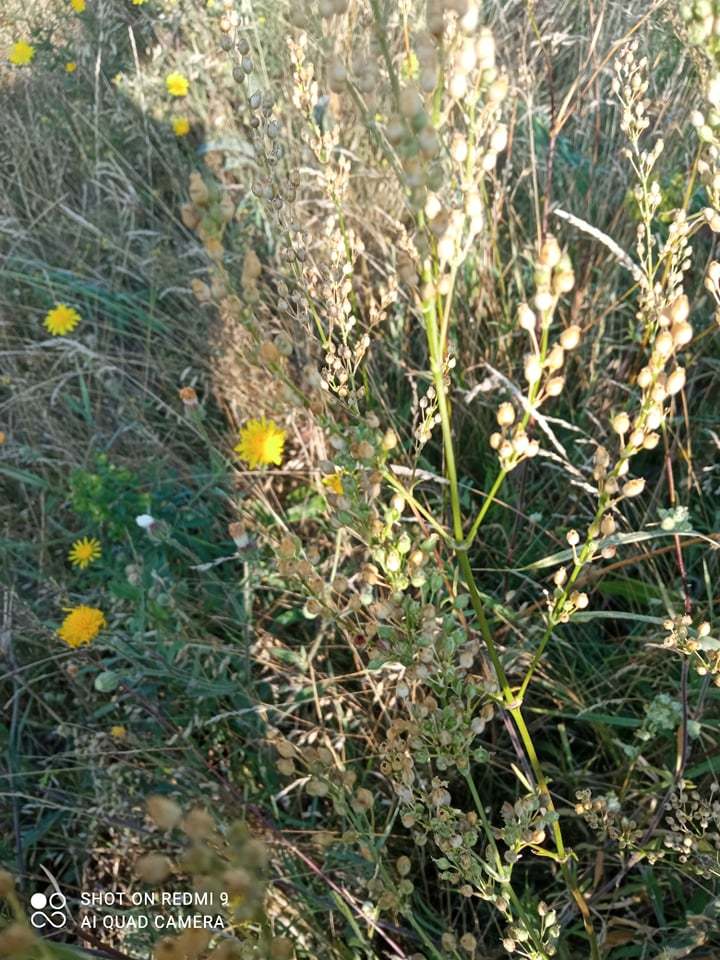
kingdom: Plantae
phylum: Tracheophyta
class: Magnoliopsida
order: Caryophyllales
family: Caryophyllaceae
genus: Silene
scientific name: Silene chersonensis
